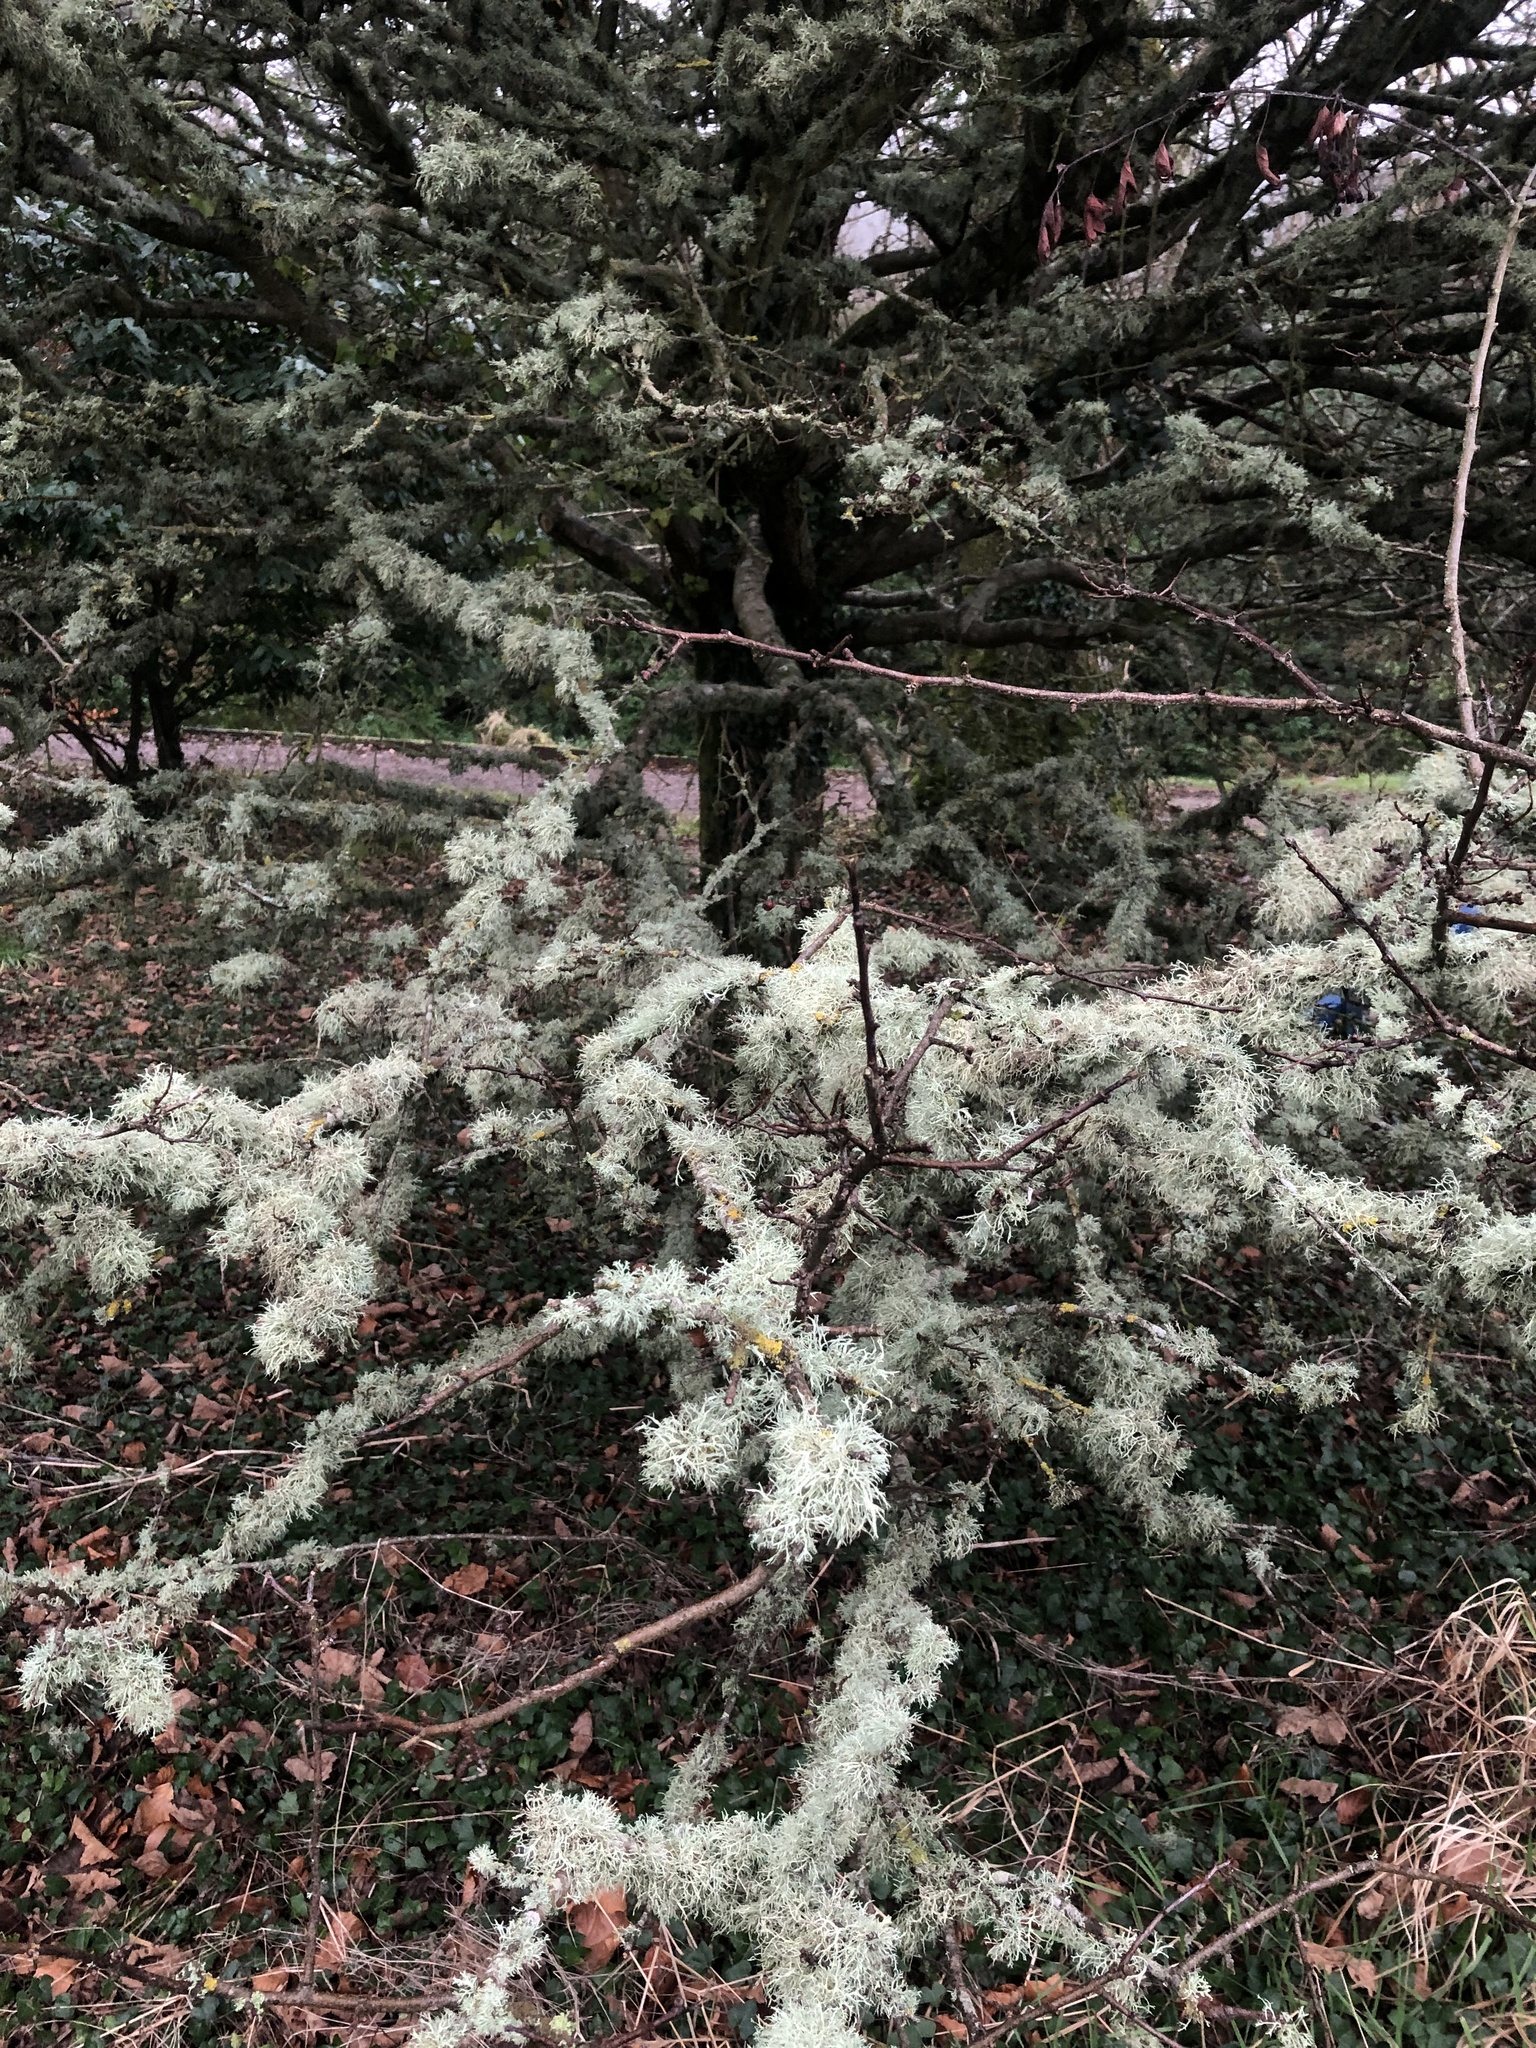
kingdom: Fungi
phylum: Ascomycota
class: Lecanoromycetes
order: Lecanorales
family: Parmeliaceae
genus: Evernia
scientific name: Evernia prunastri
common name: Oak moss
